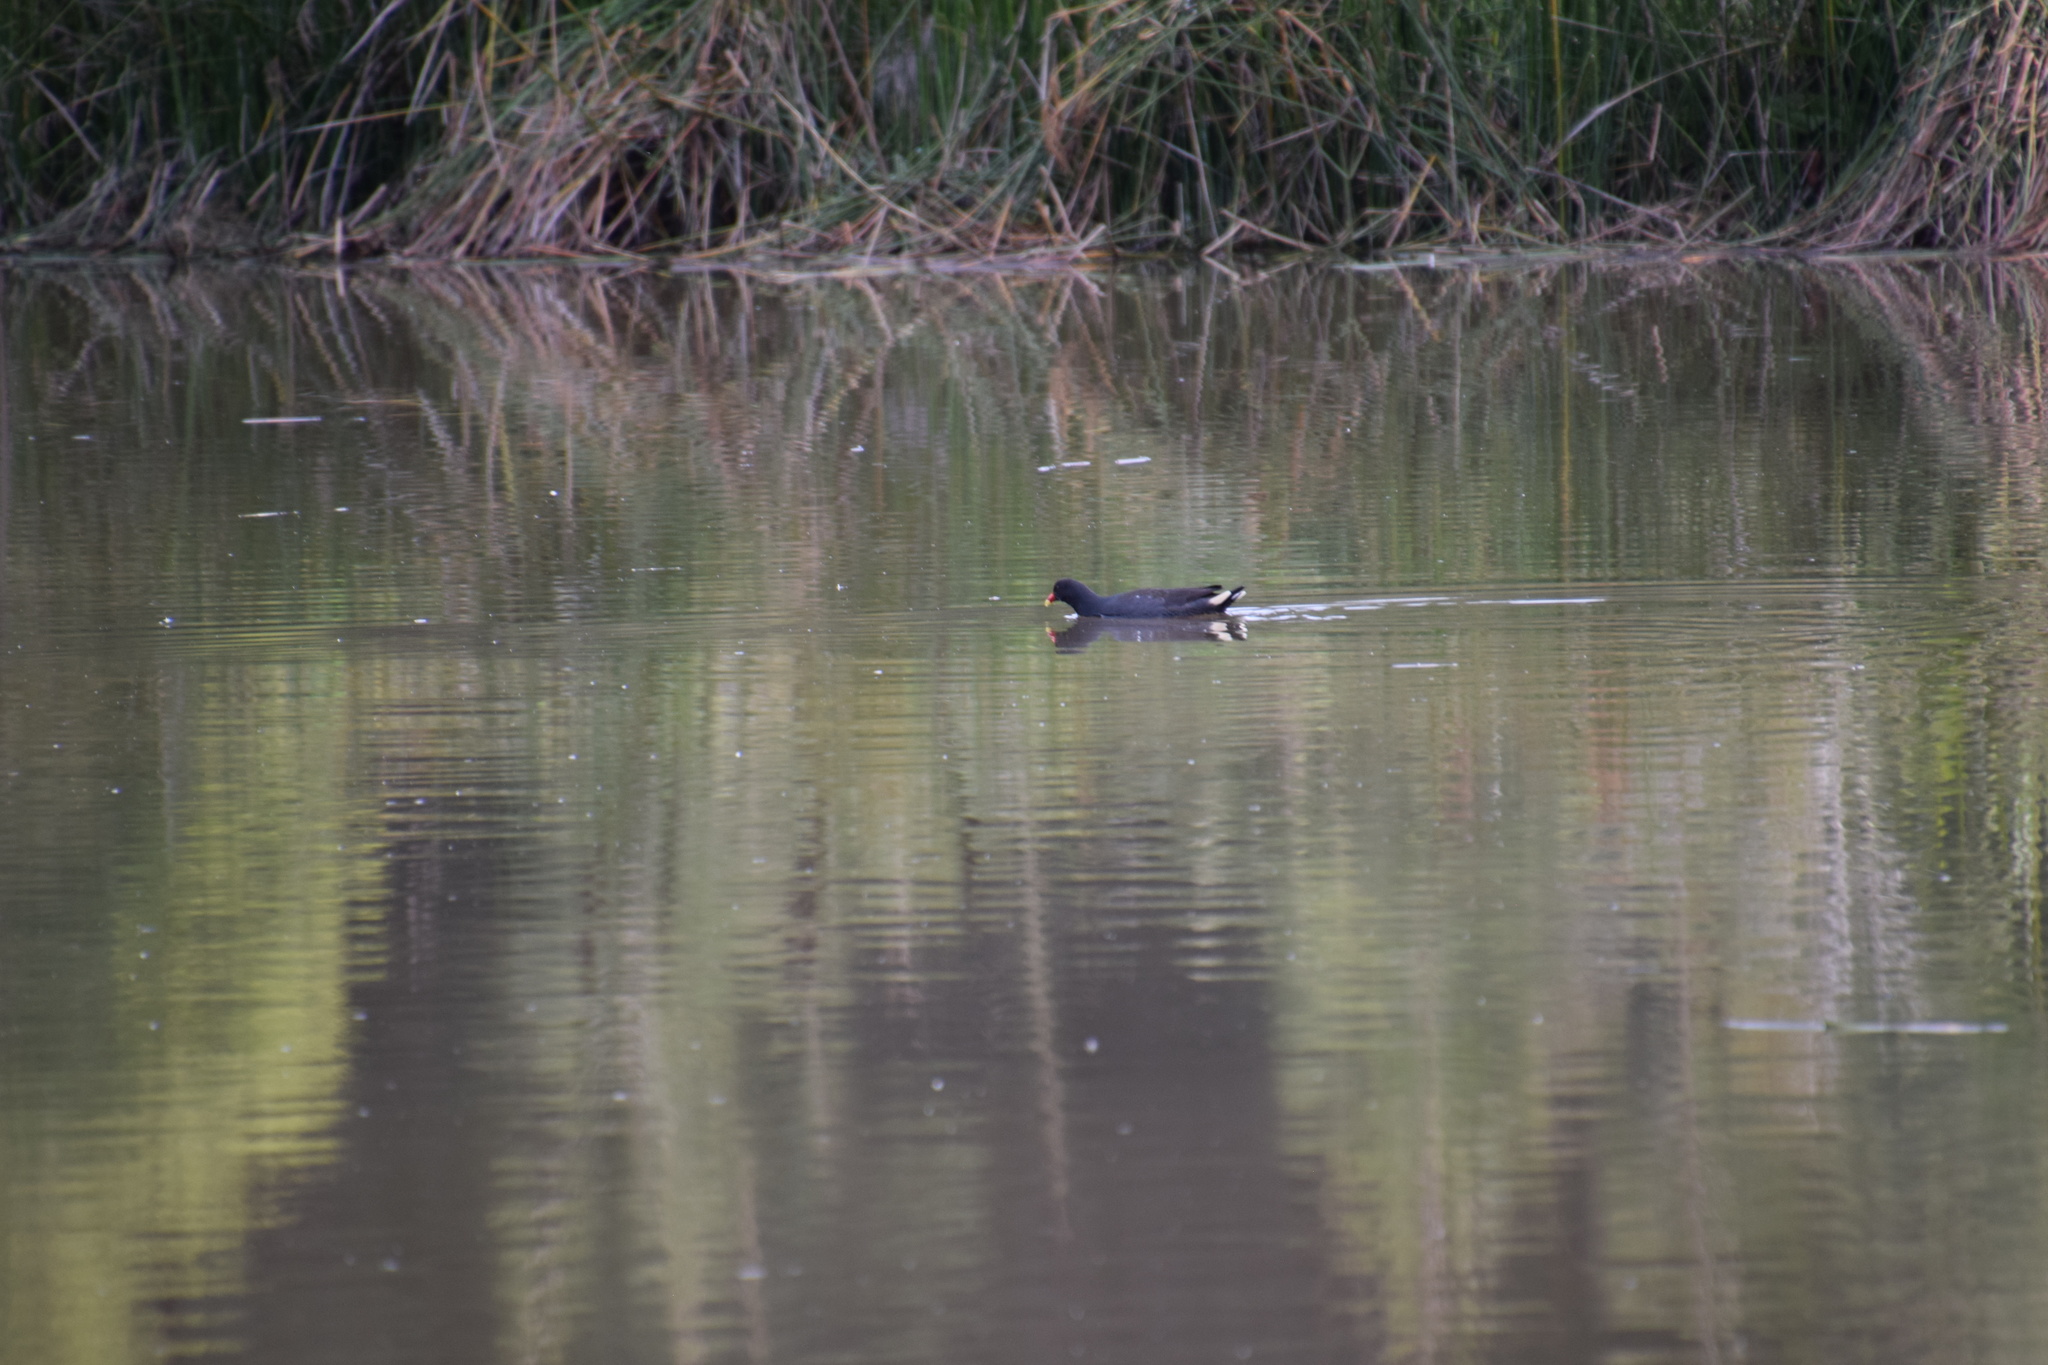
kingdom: Animalia
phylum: Chordata
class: Aves
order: Gruiformes
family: Rallidae
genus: Gallinula
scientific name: Gallinula tenebrosa
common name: Dusky moorhen
